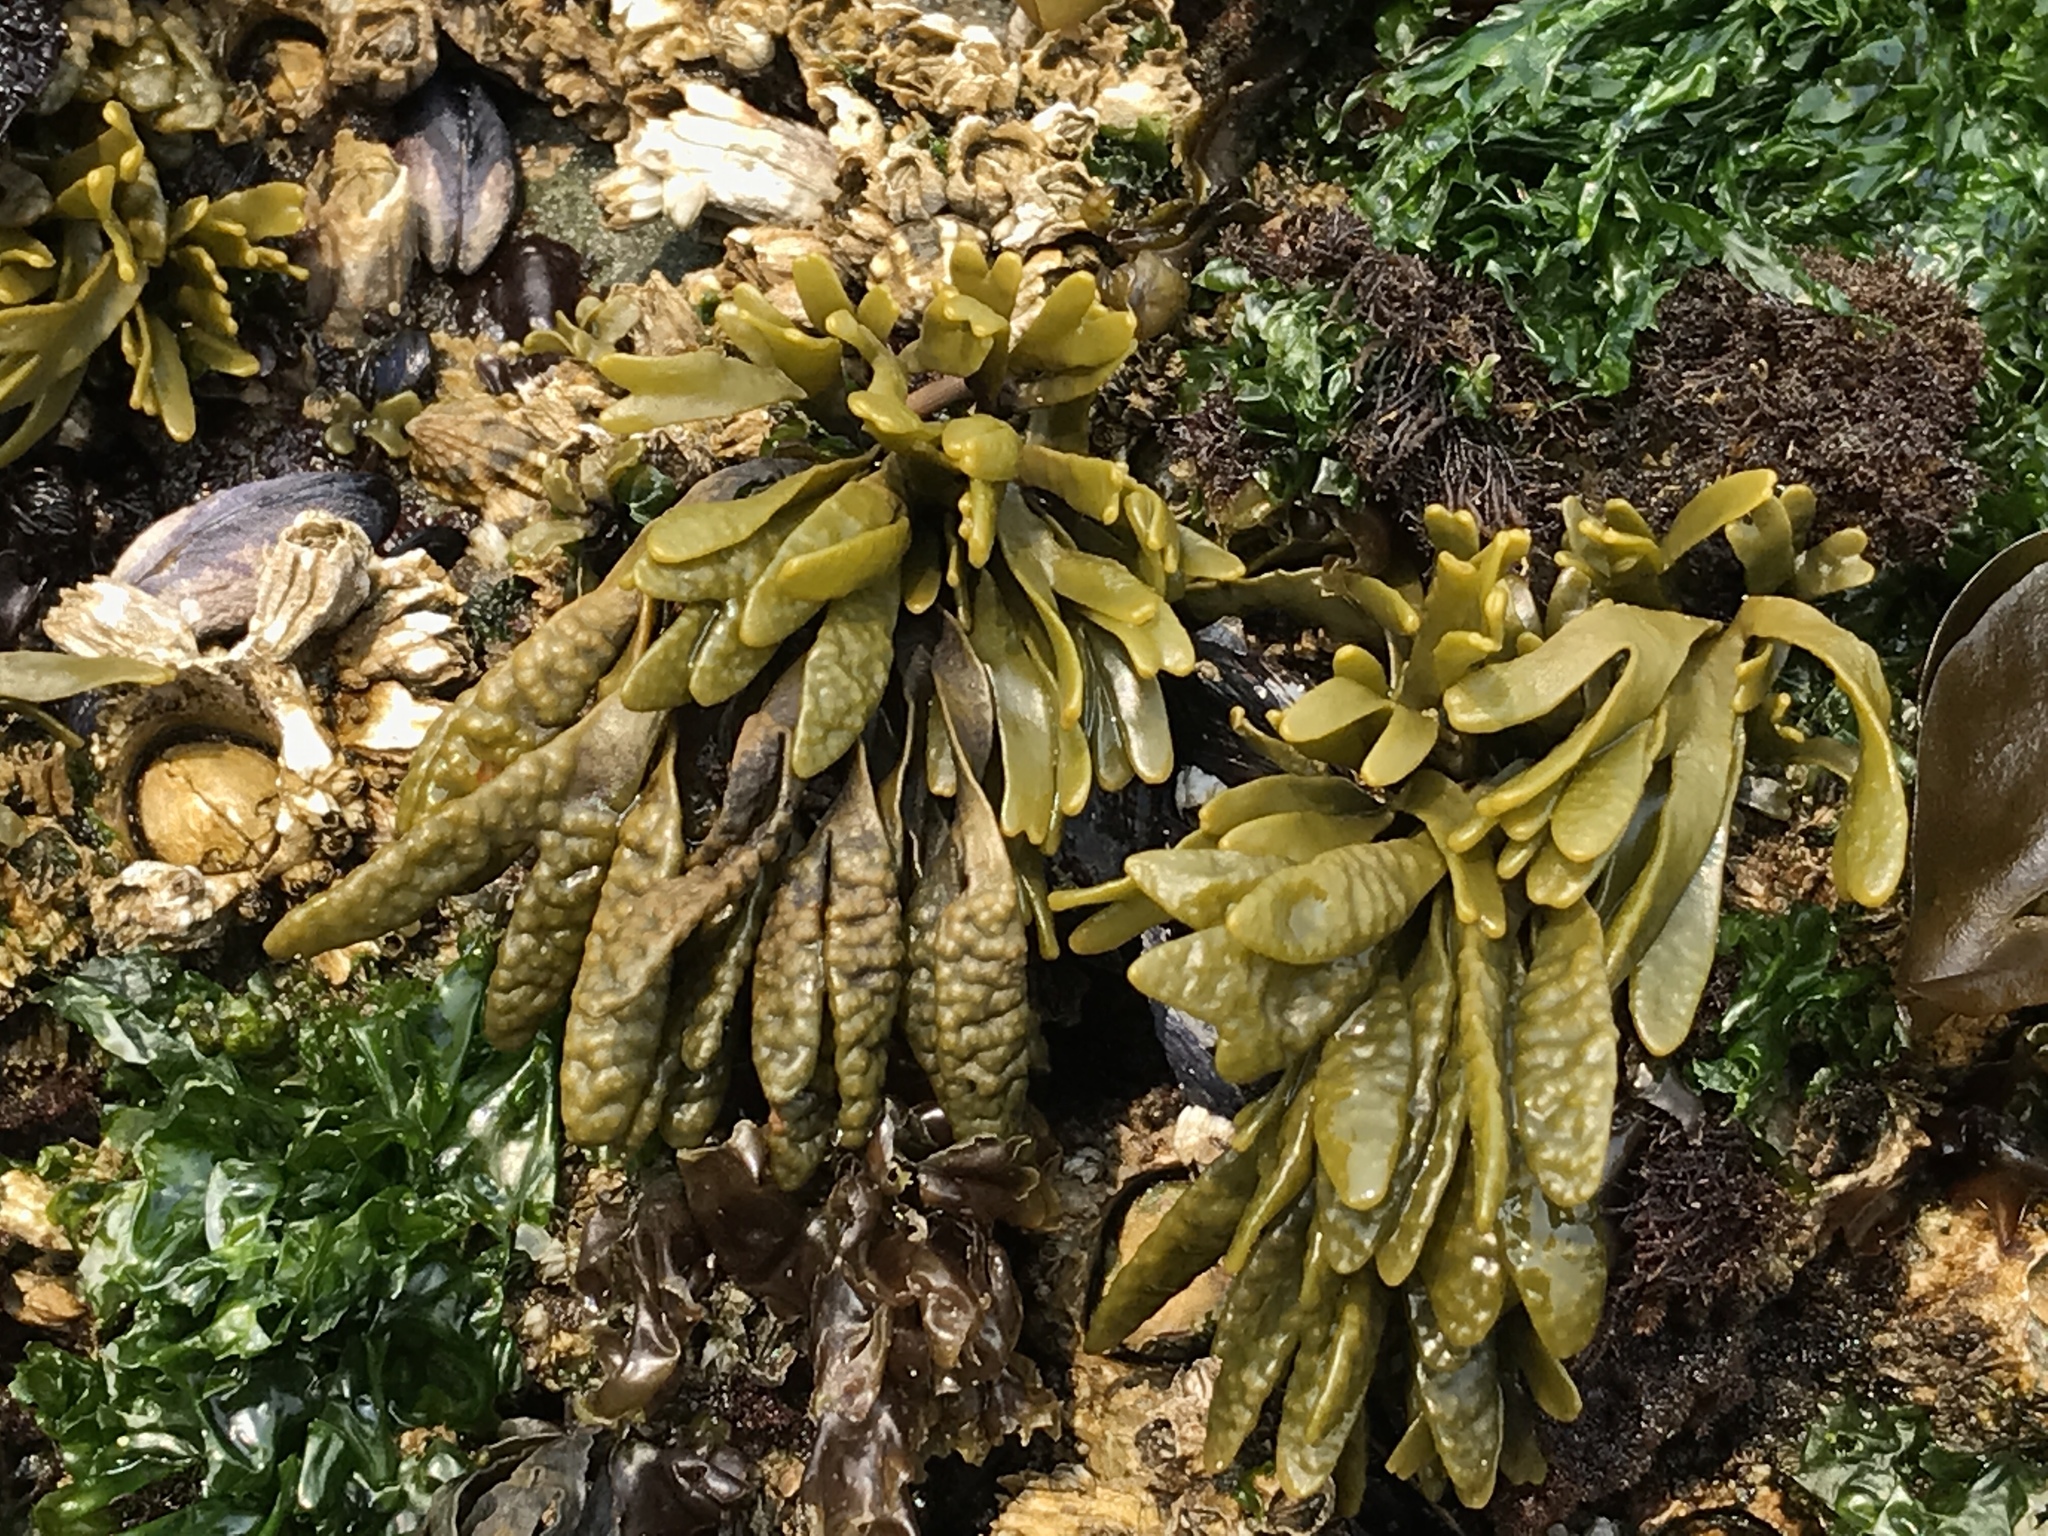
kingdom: Chromista
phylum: Ochrophyta
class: Phaeophyceae
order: Fucales
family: Fucaceae
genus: Pelvetiopsis
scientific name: Pelvetiopsis limitata
